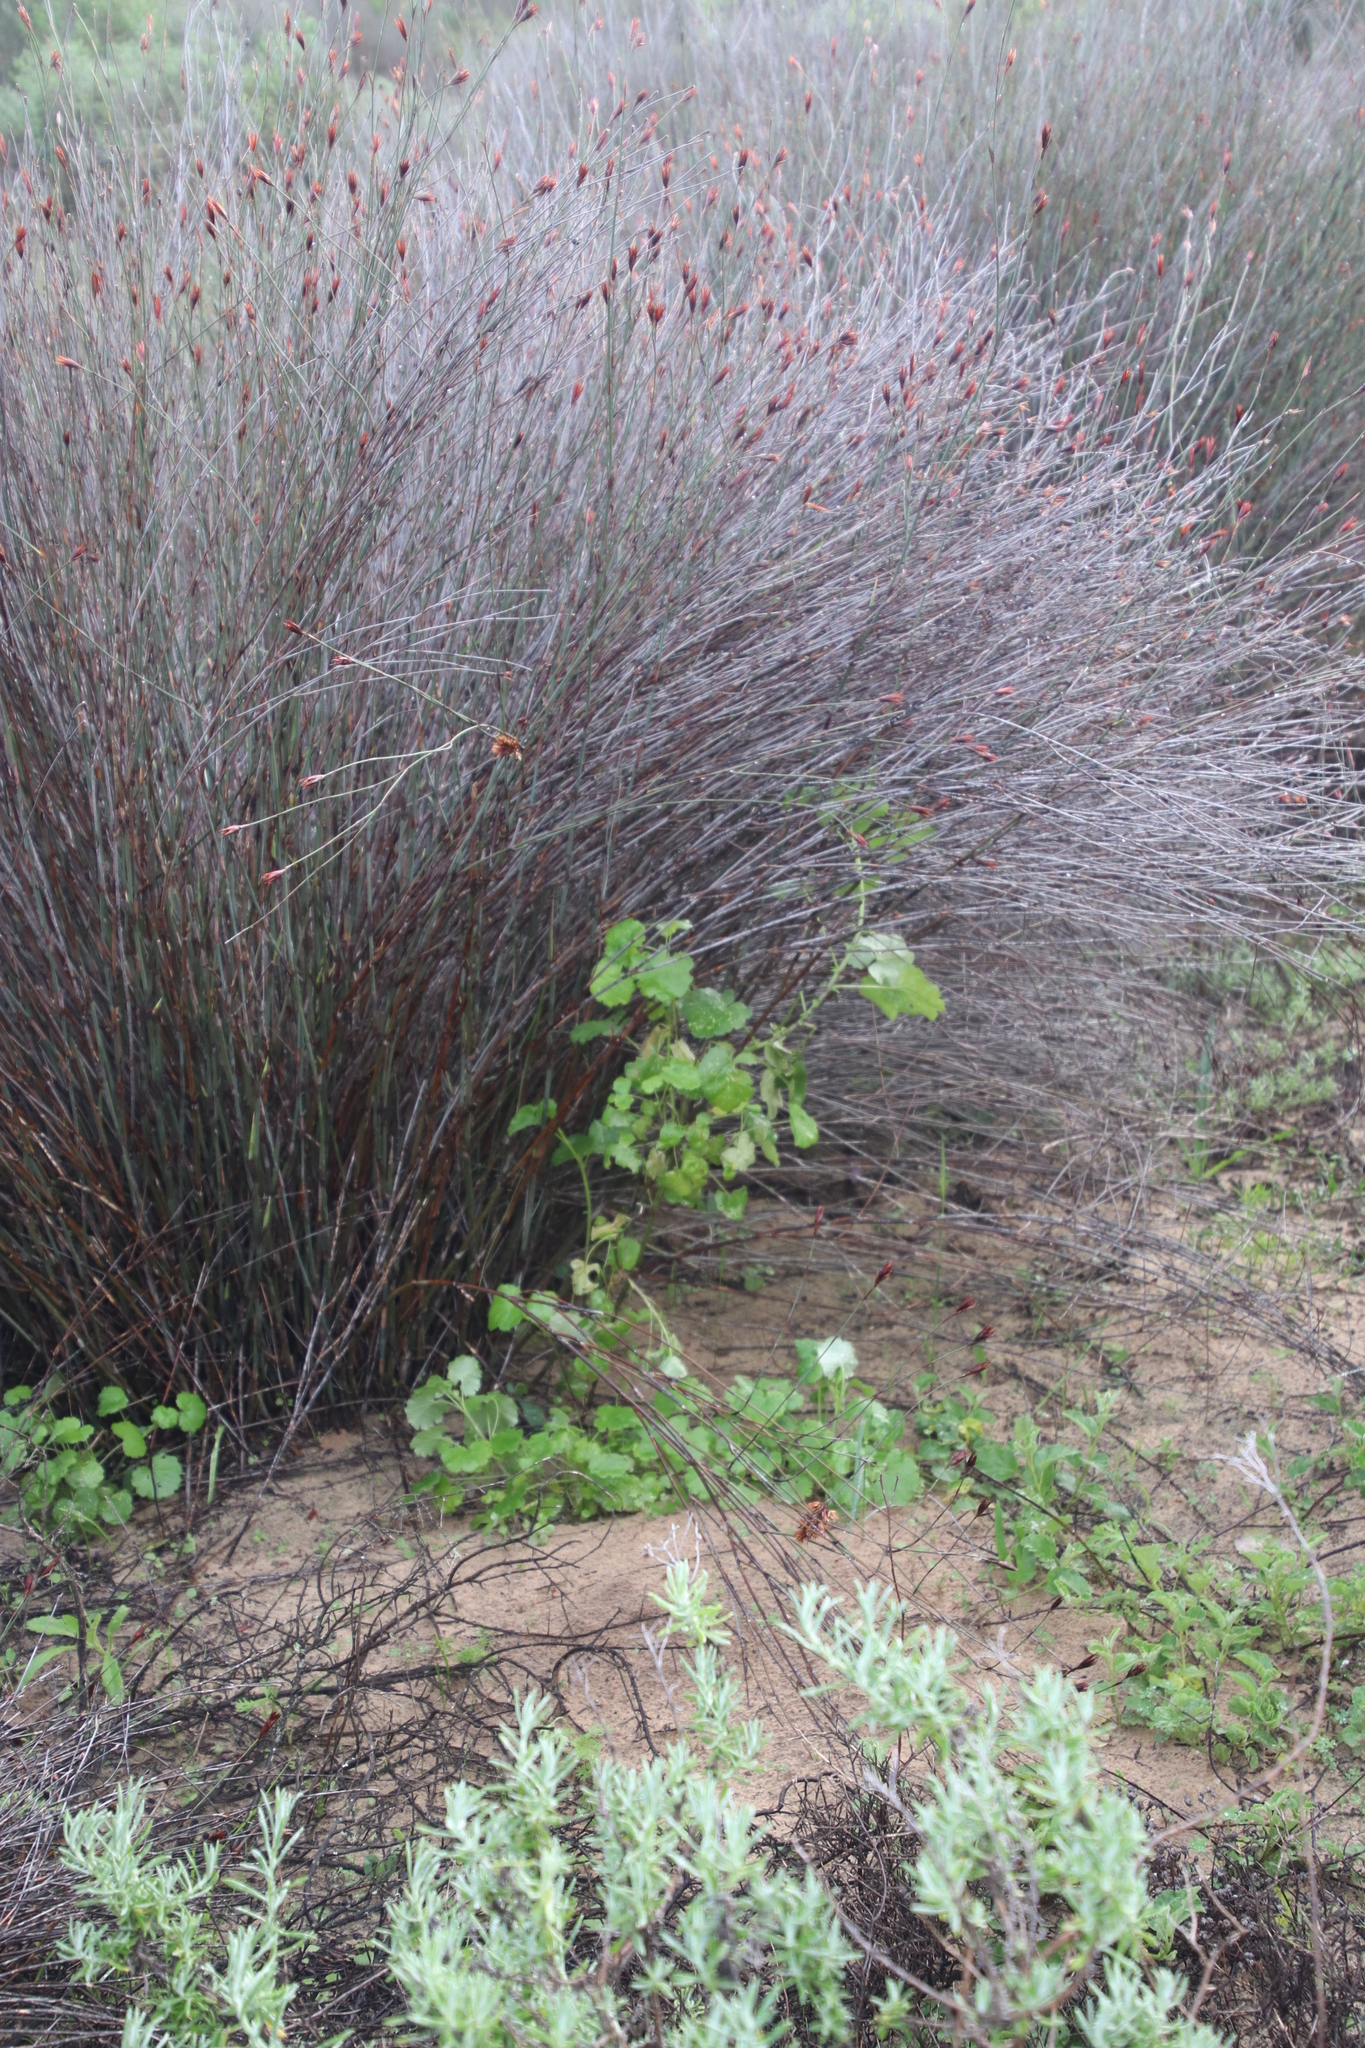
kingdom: Plantae
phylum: Tracheophyta
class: Magnoliopsida
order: Asterales
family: Asteraceae
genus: Cineraria
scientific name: Cineraria geifolia
